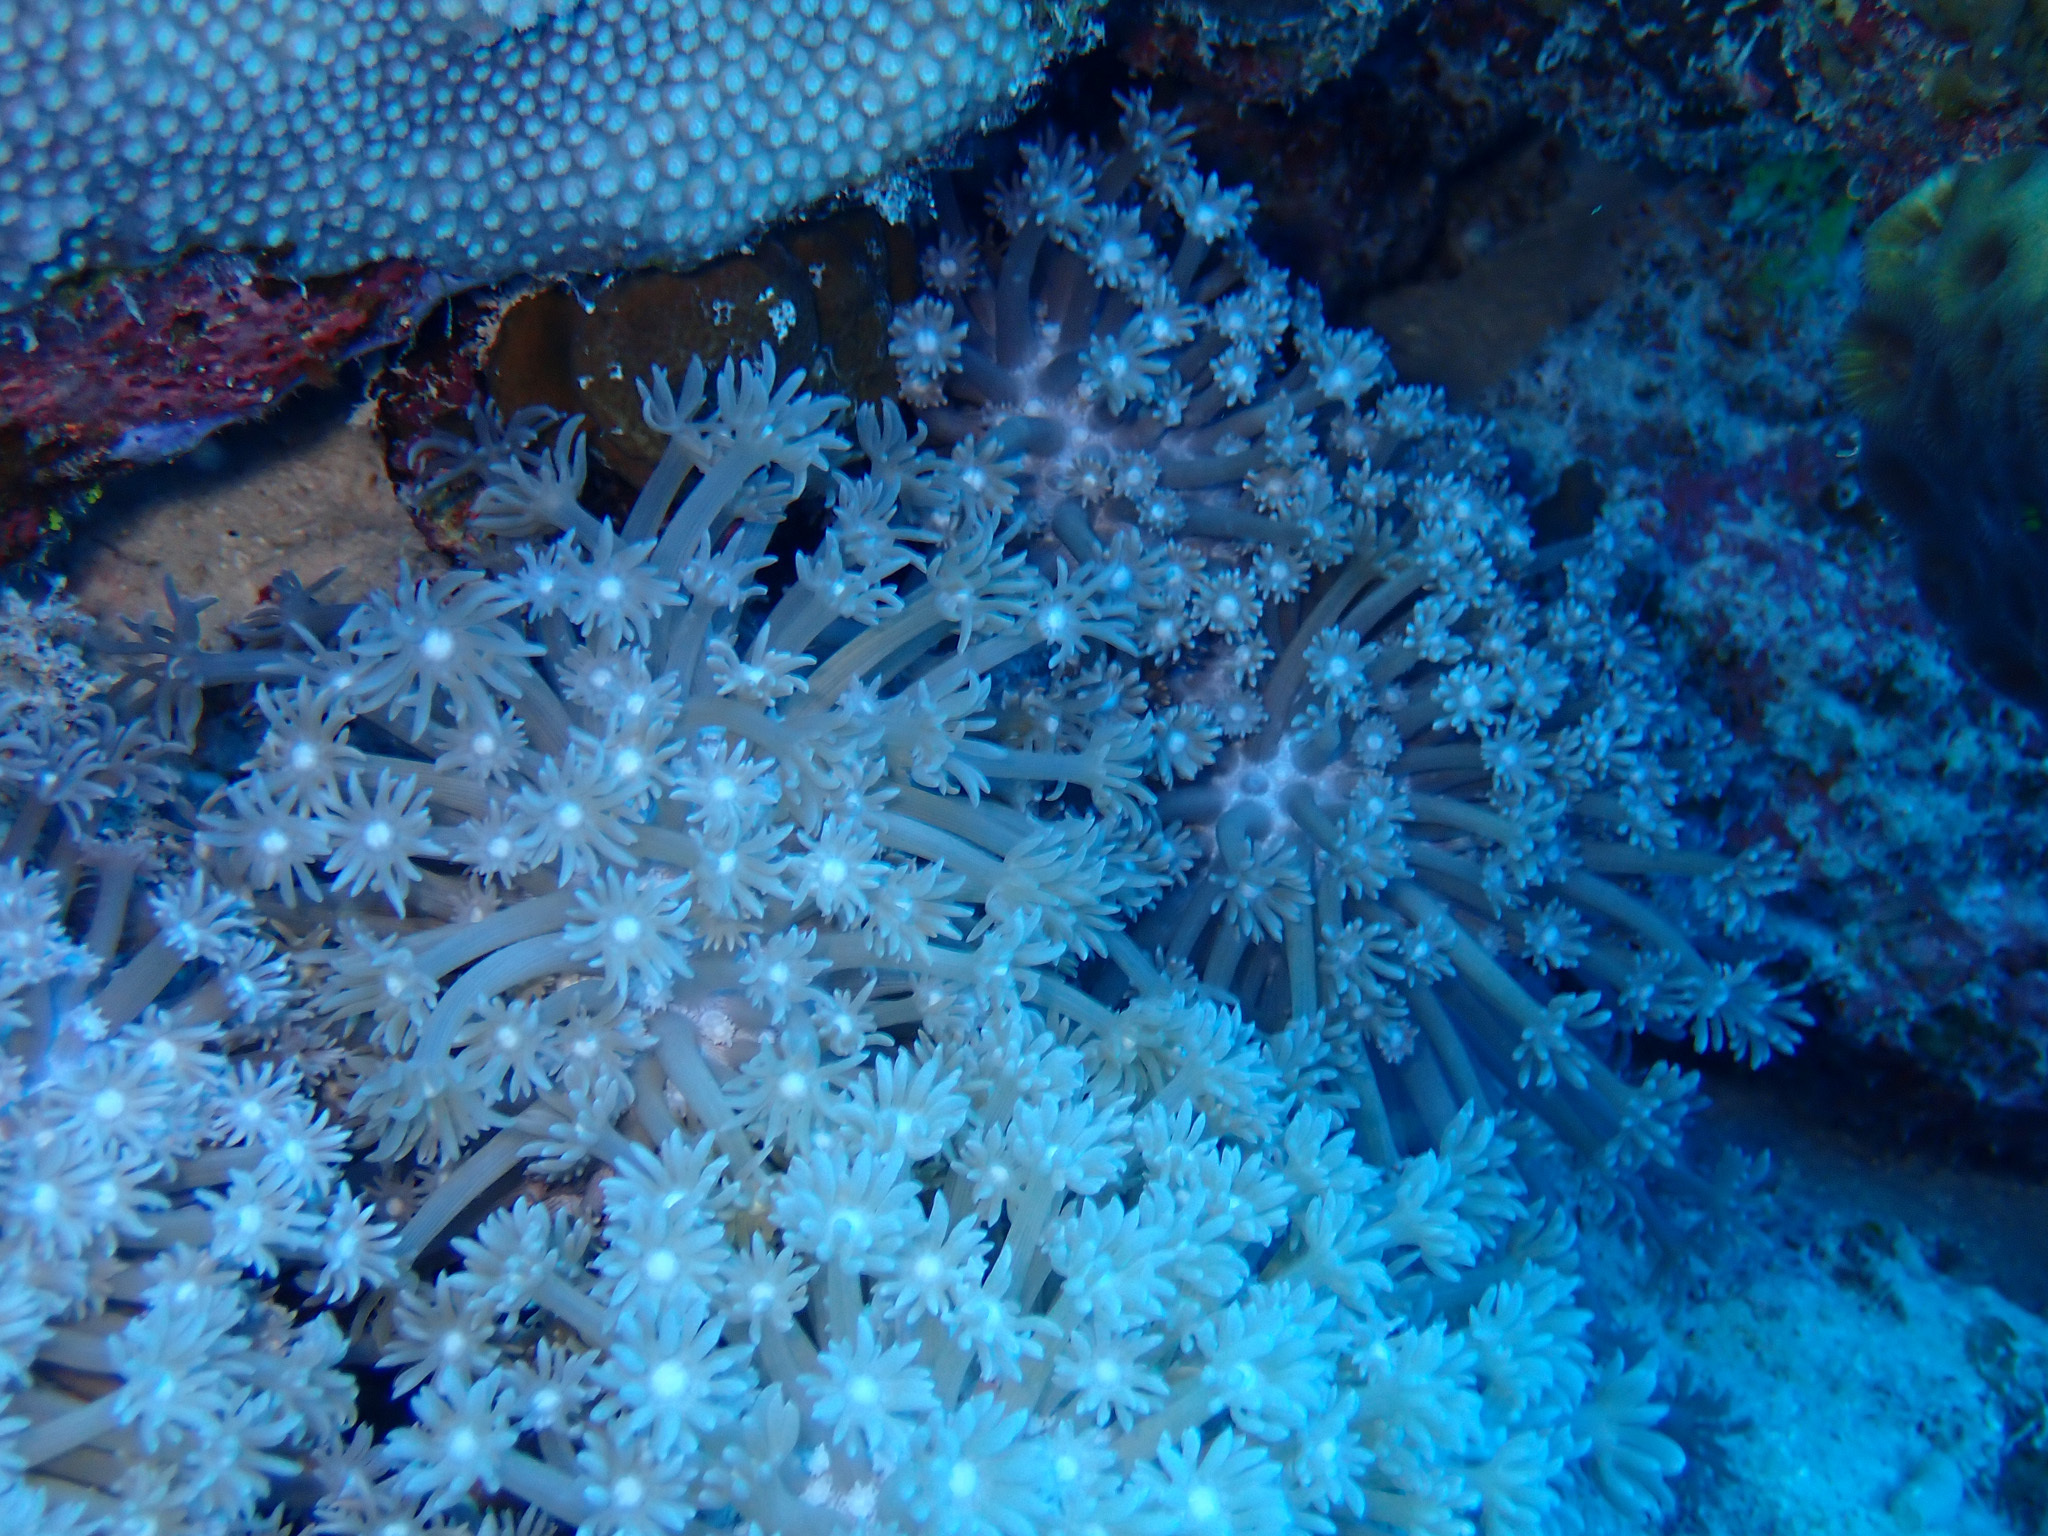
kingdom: Animalia
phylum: Cnidaria
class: Anthozoa
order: Scleractinia
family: Poritidae
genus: Goniopora
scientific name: Goniopora
